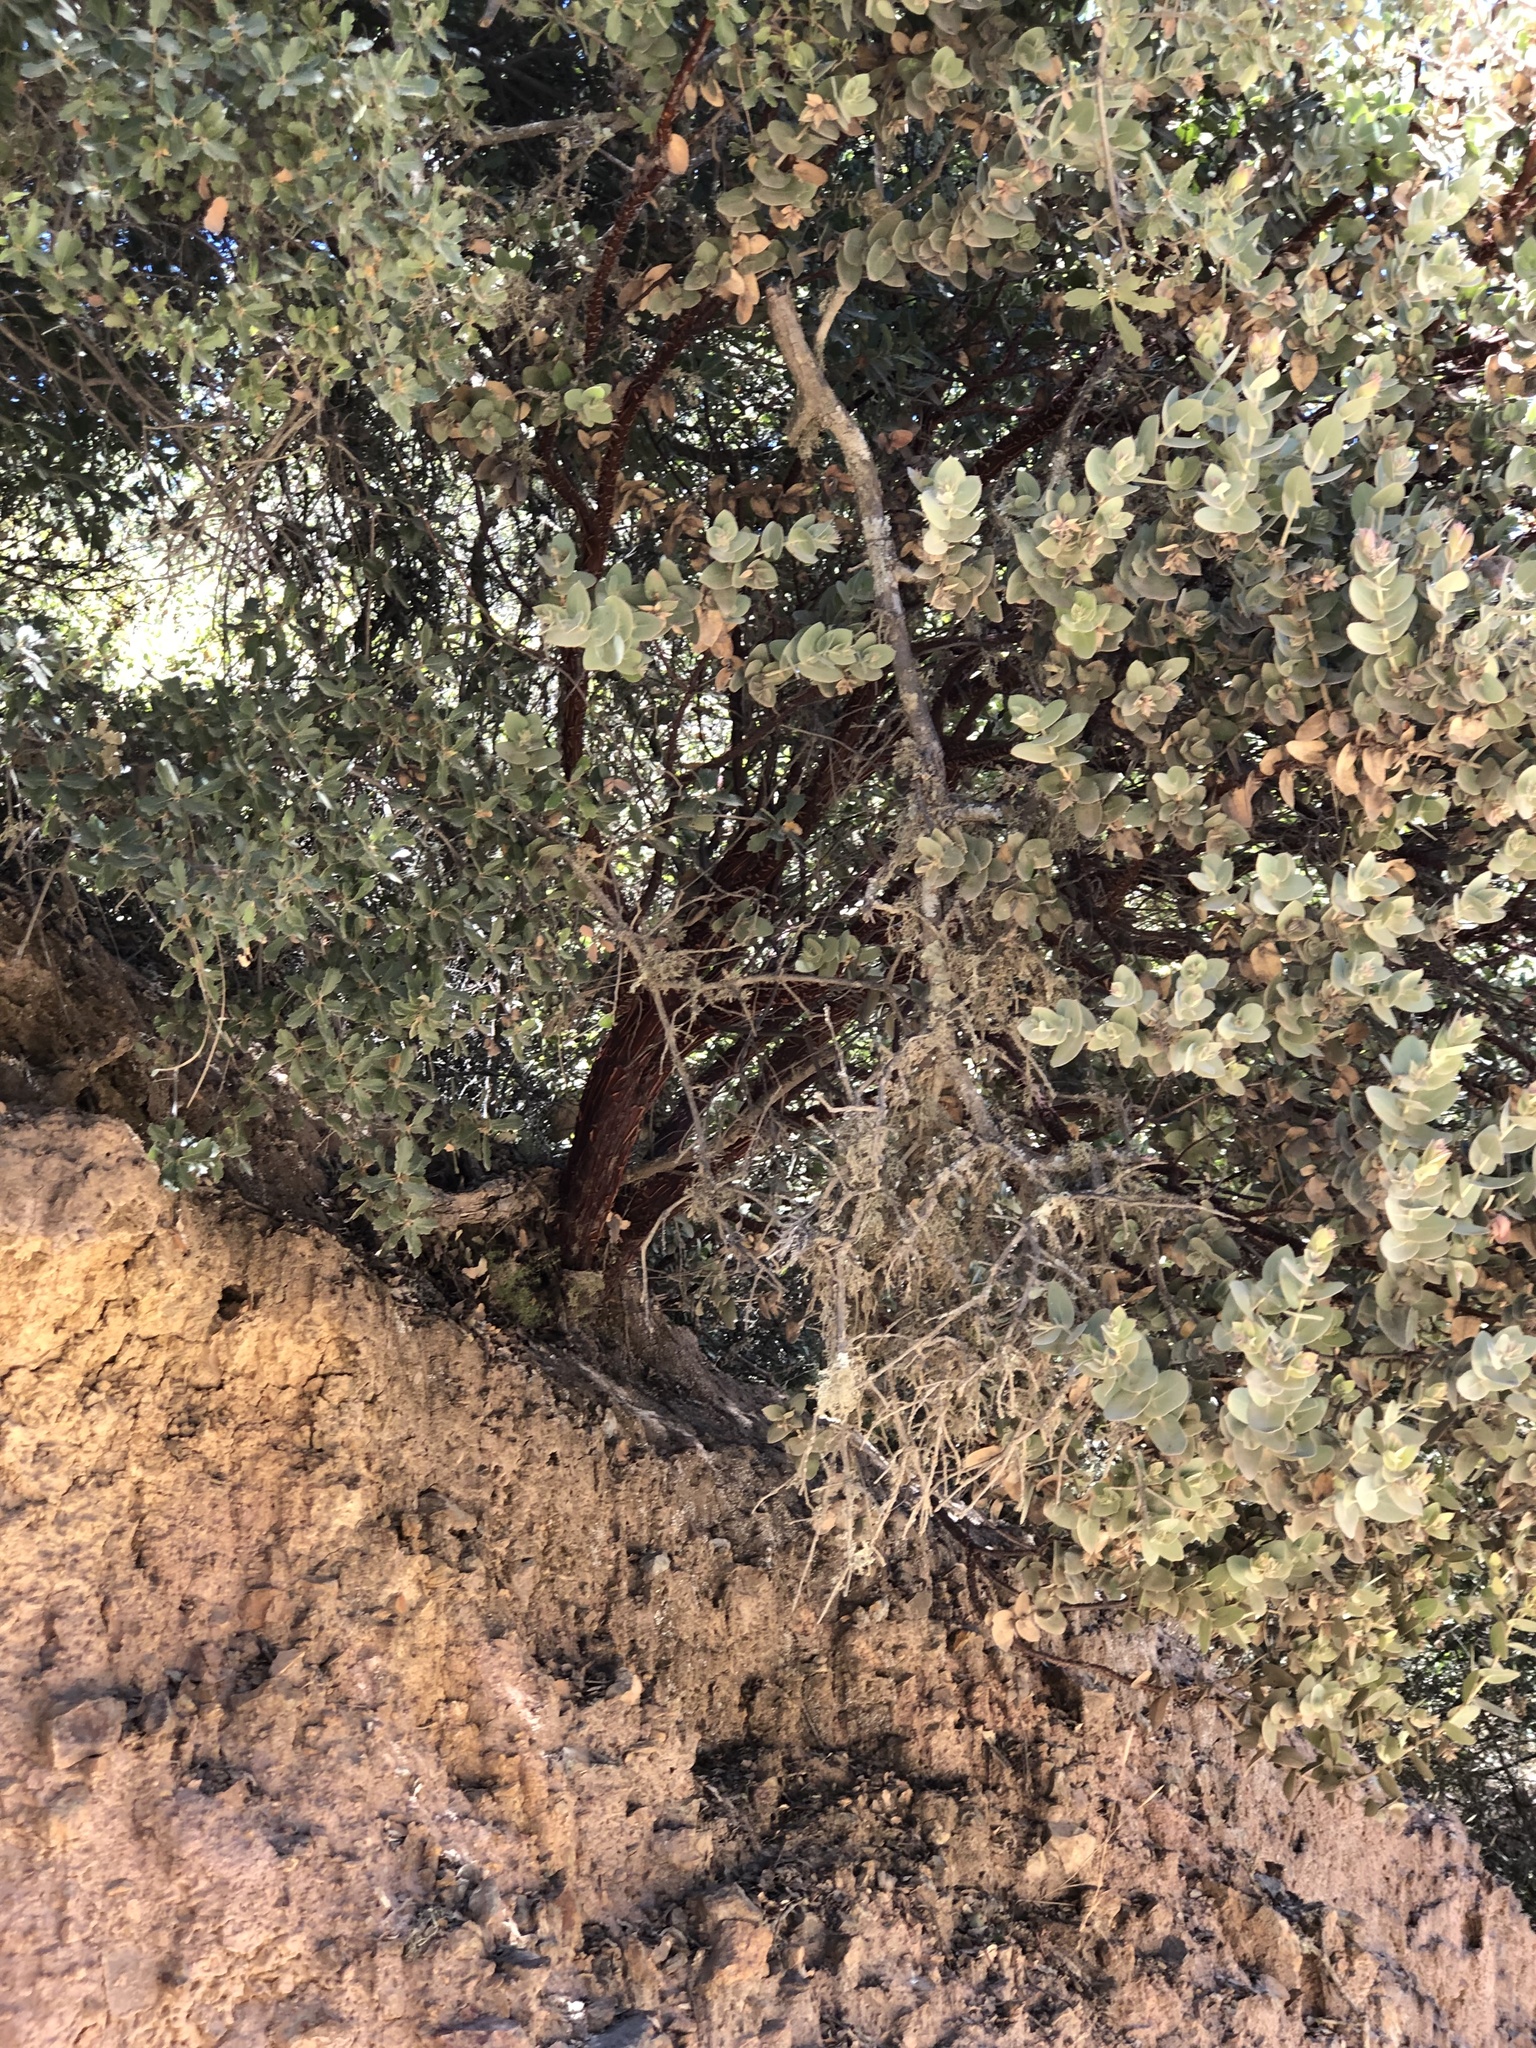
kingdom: Plantae
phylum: Tracheophyta
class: Magnoliopsida
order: Ericales
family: Ericaceae
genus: Arctostaphylos
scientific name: Arctostaphylos luciana
